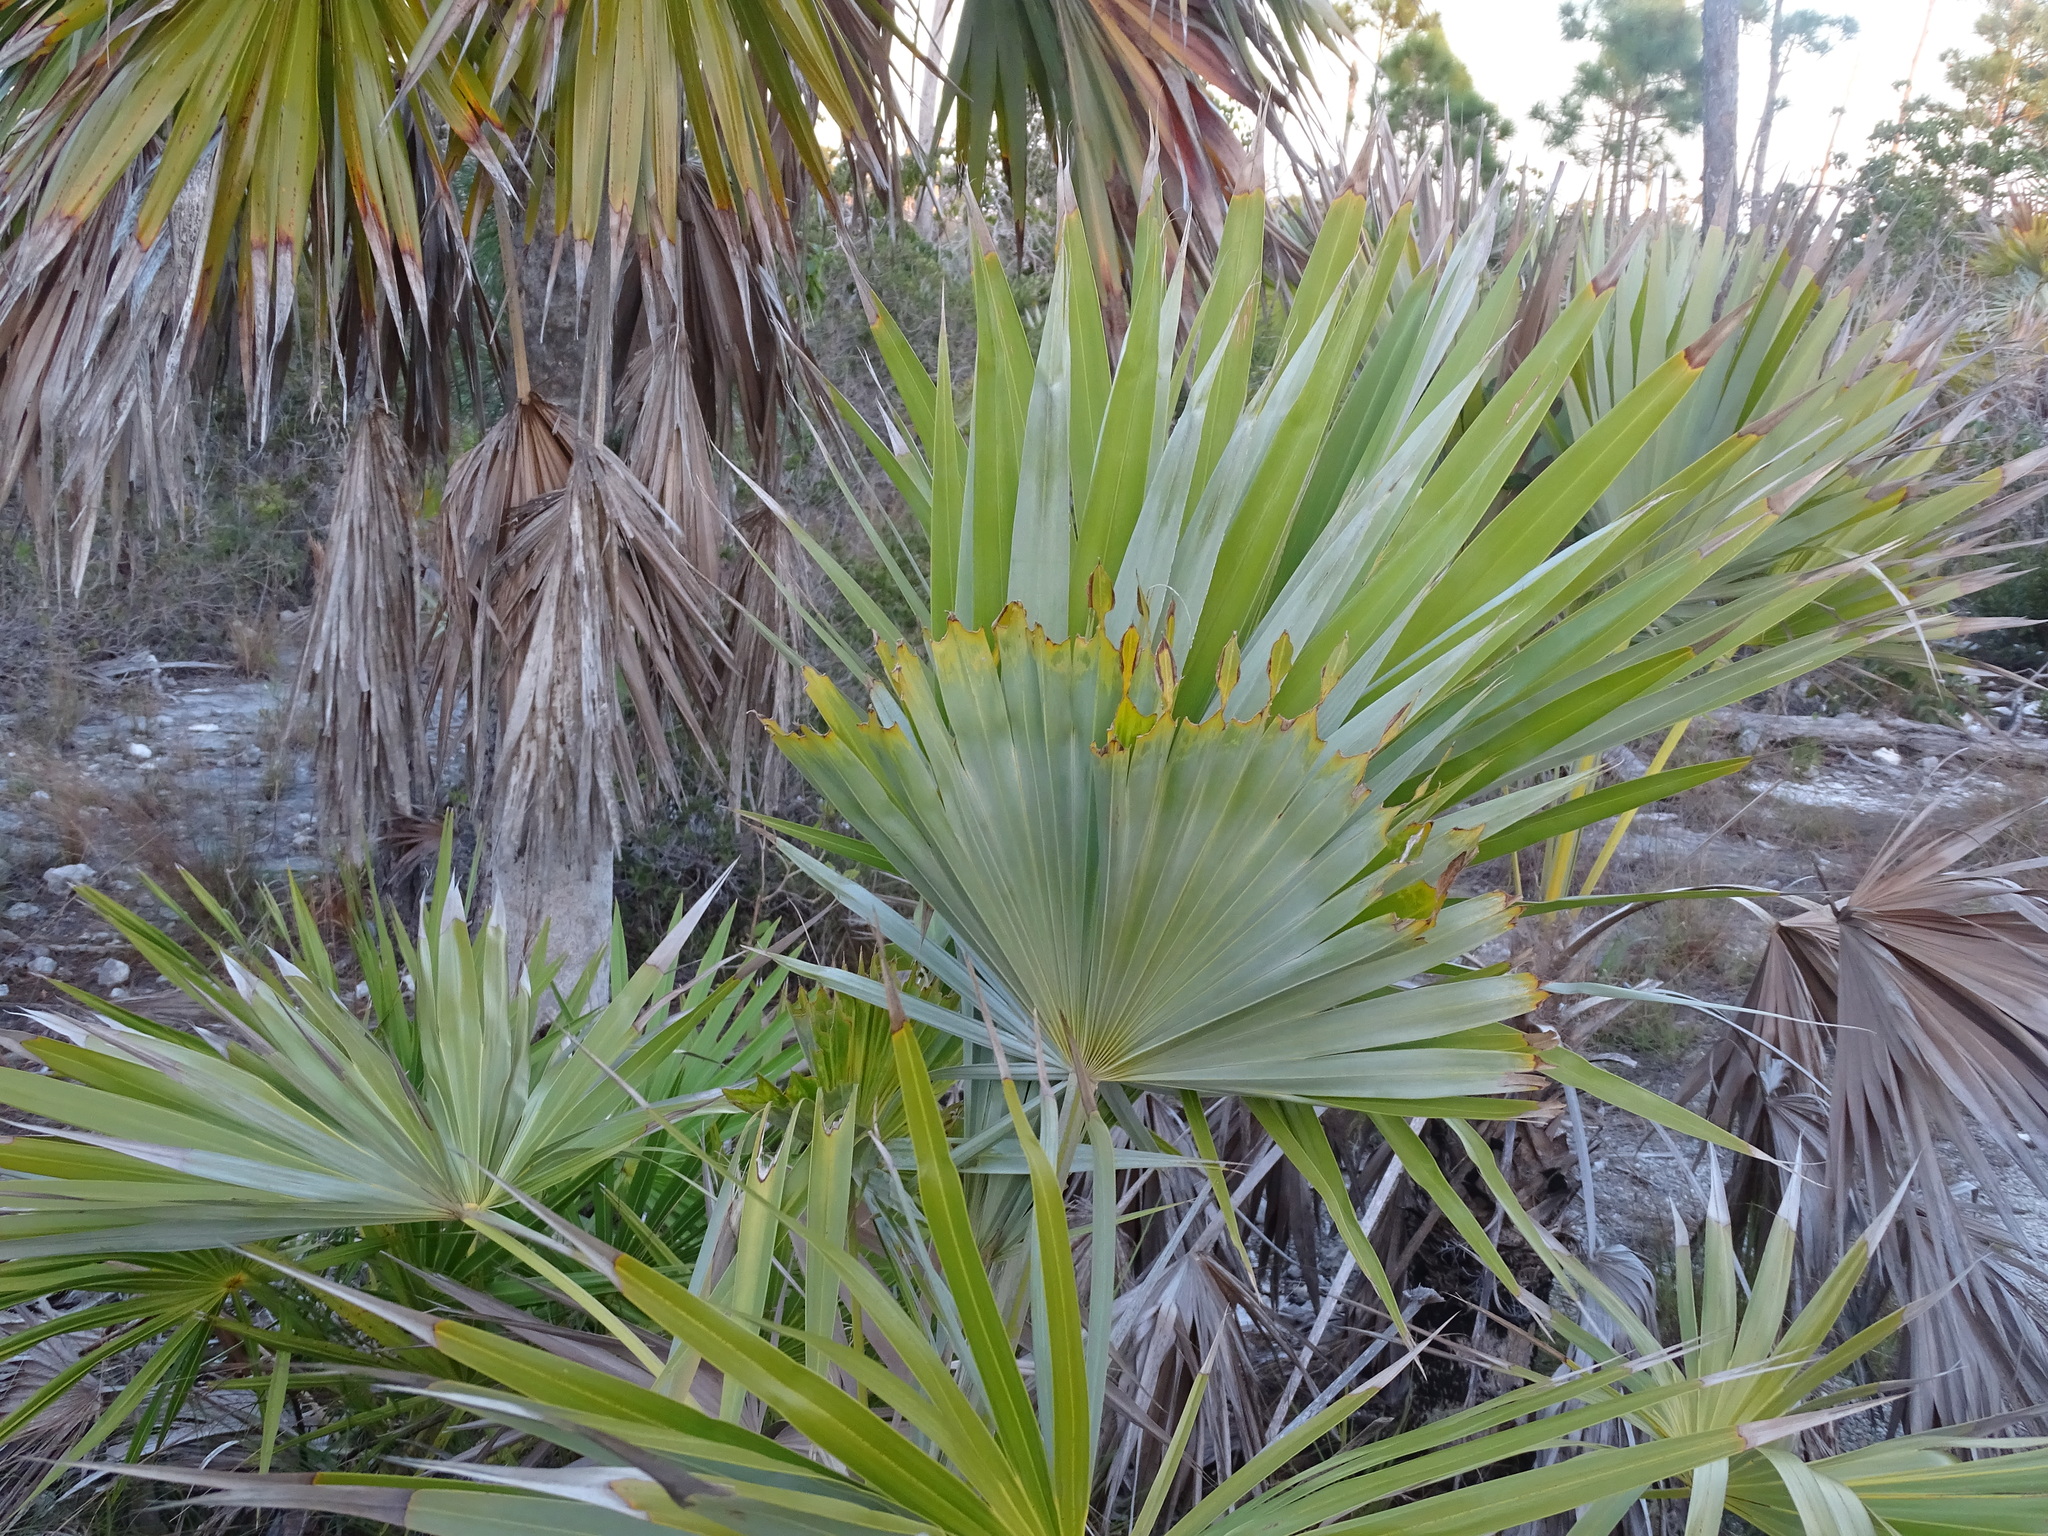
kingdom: Plantae
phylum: Tracheophyta
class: Liliopsida
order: Arecales
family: Arecaceae
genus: Leucothrinax
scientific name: Leucothrinax morrisii
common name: Key palm
